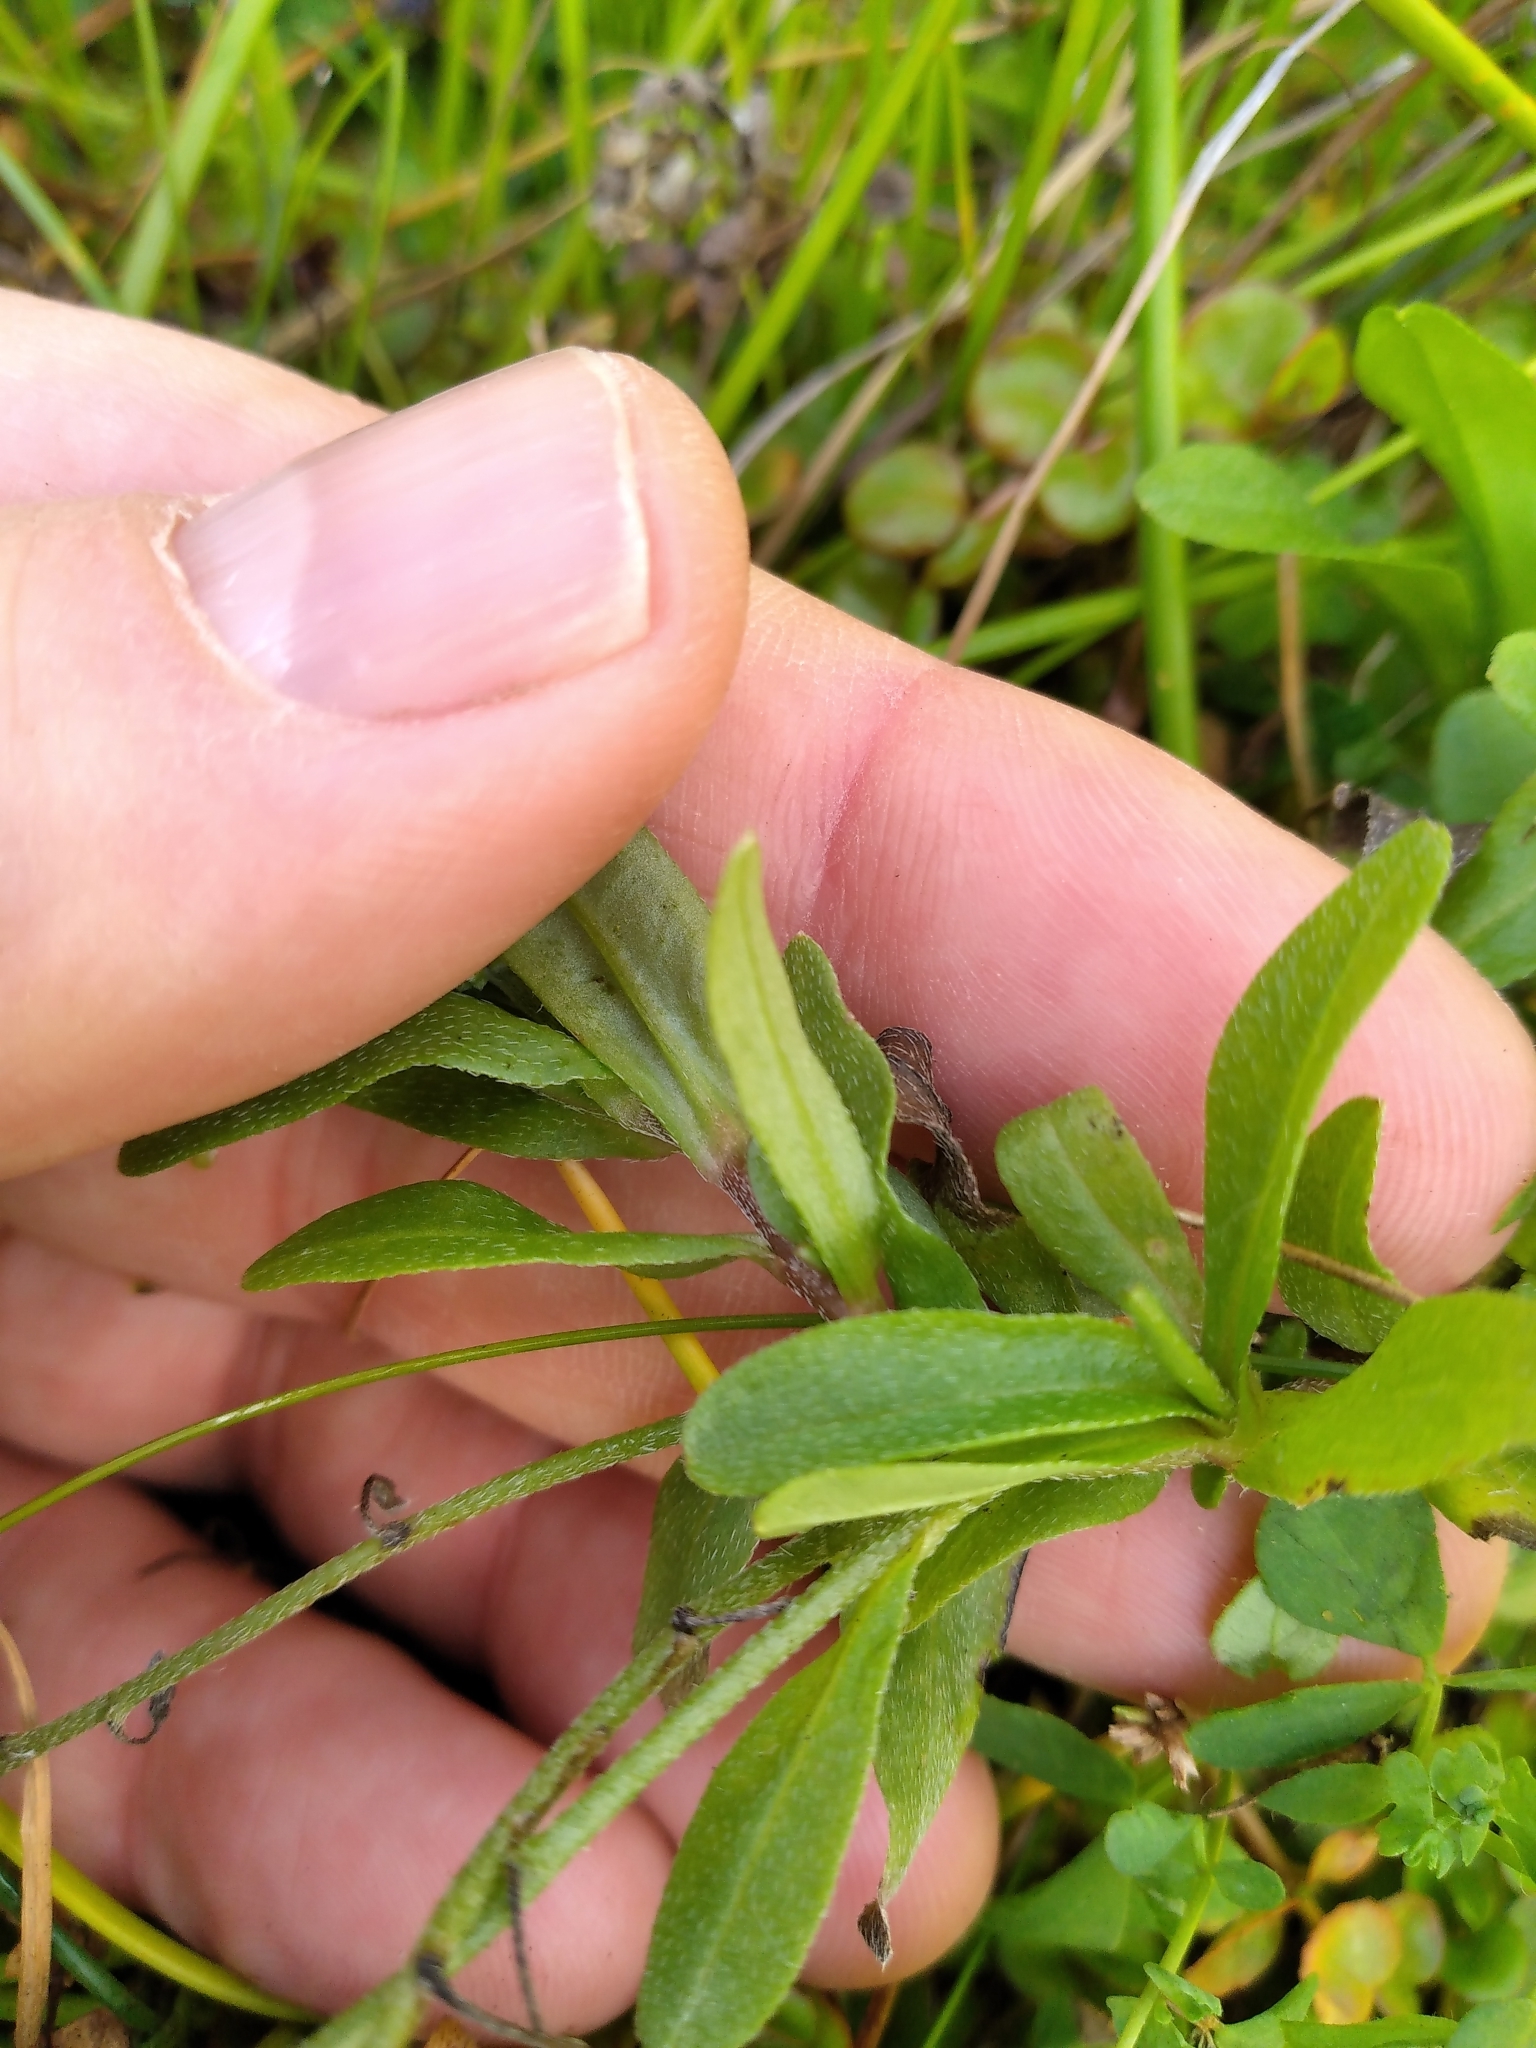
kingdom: Plantae
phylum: Tracheophyta
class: Magnoliopsida
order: Boraginales
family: Boraginaceae
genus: Myosotis
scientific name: Myosotis laxa
